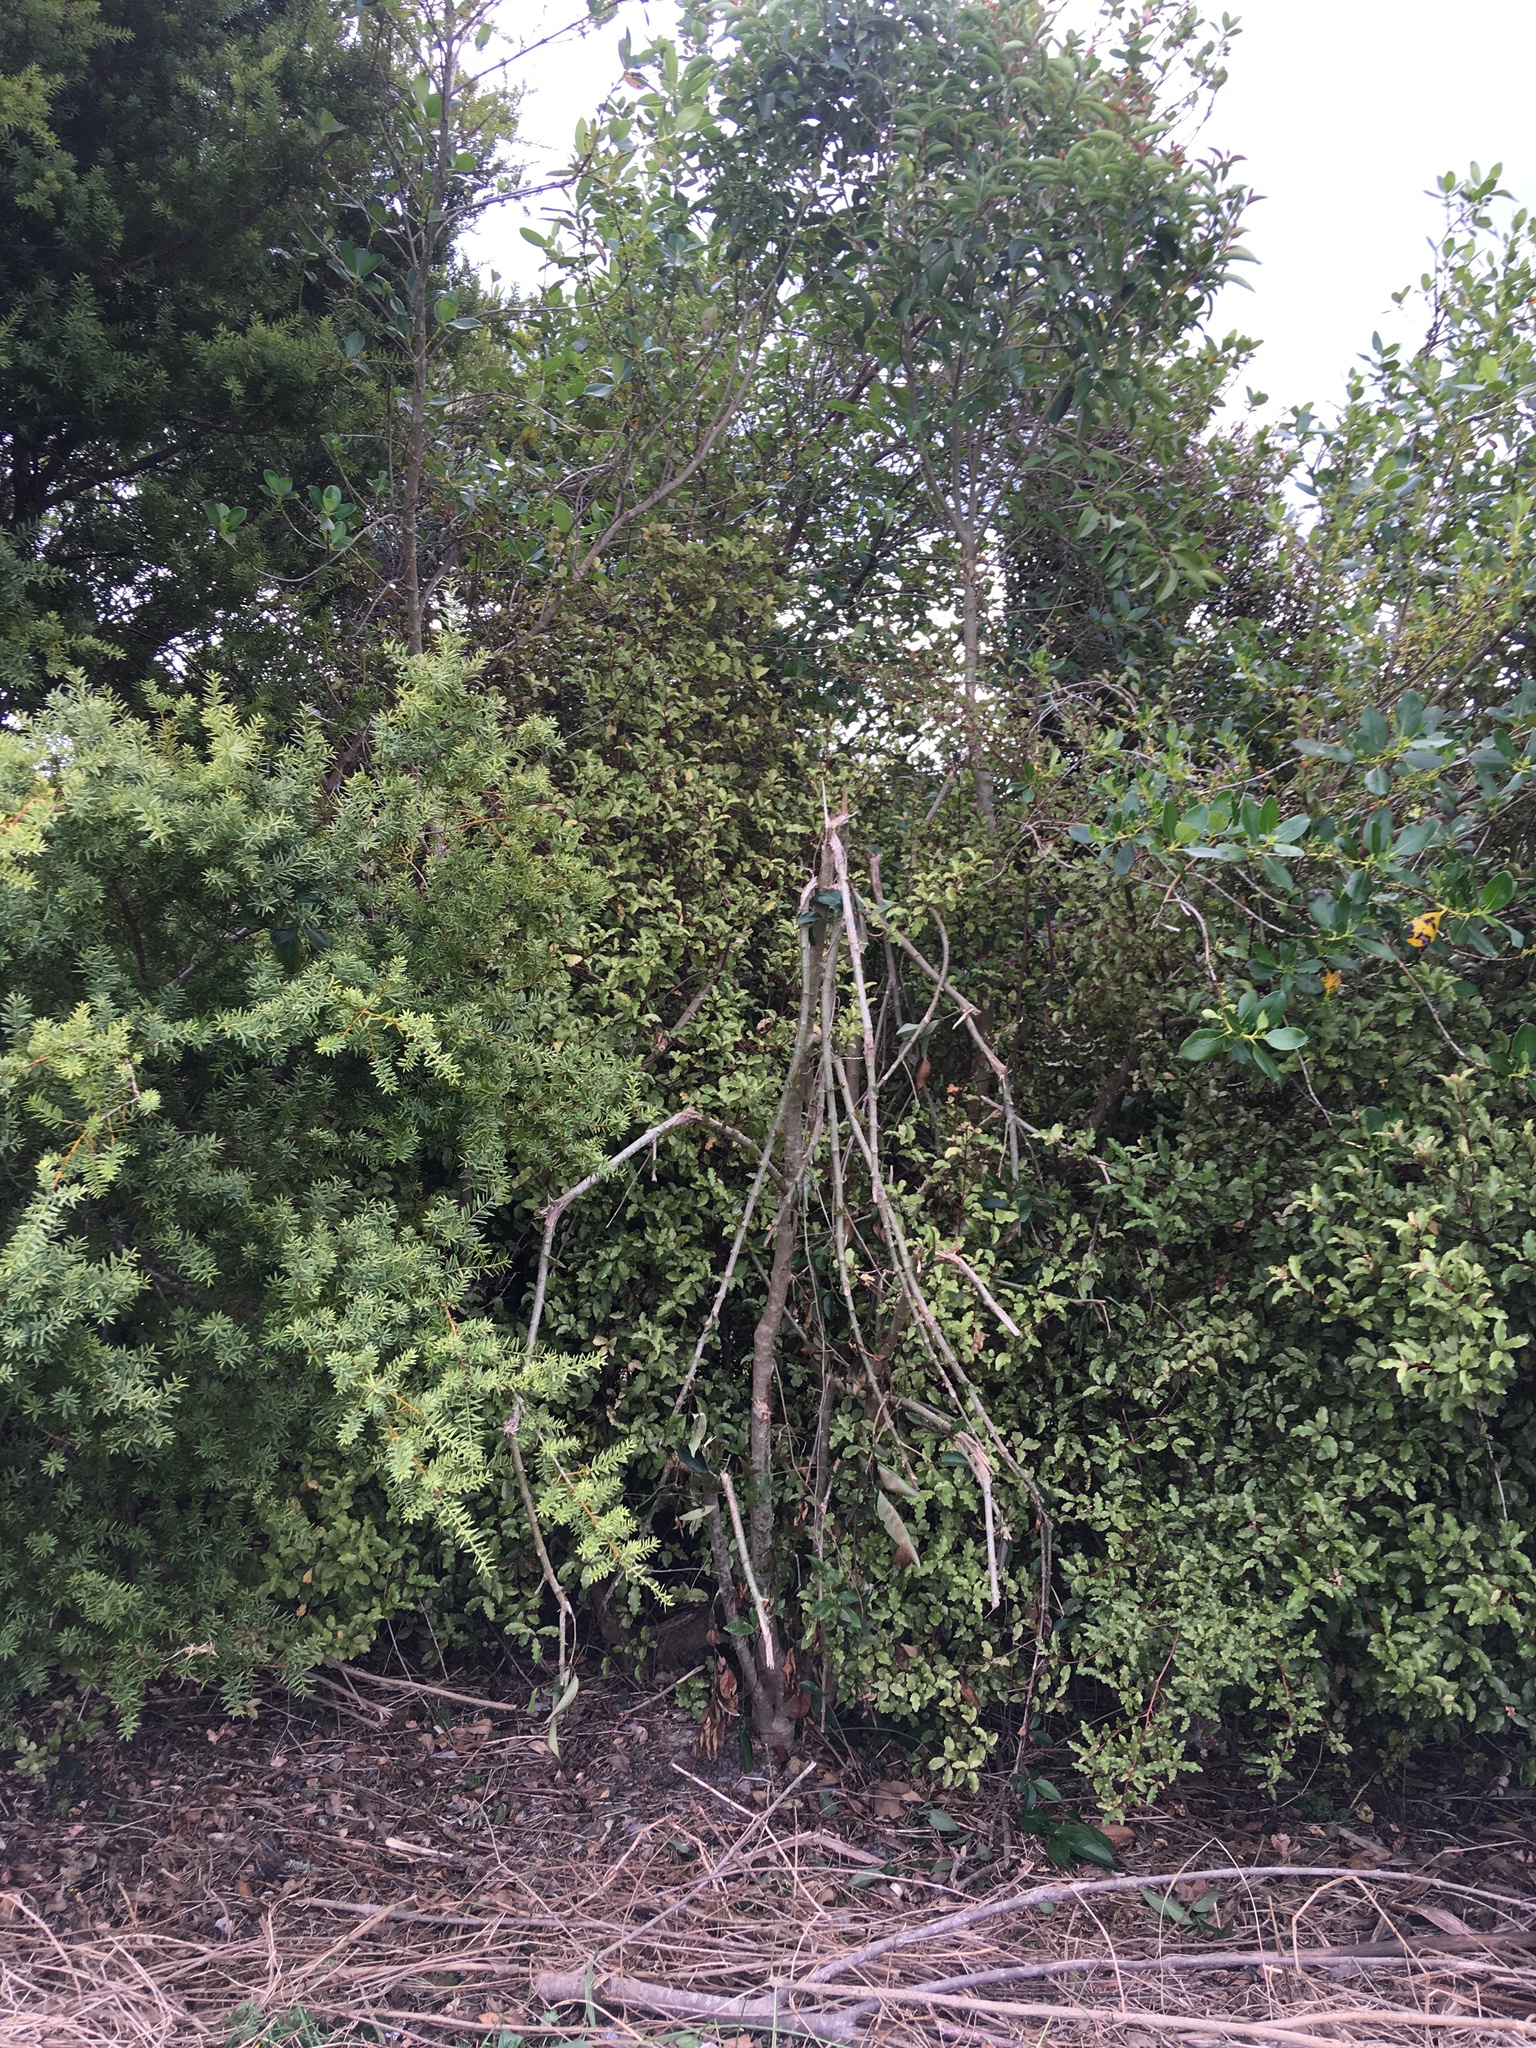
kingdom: Plantae
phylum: Tracheophyta
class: Magnoliopsida
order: Ericales
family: Primulaceae
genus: Myrsine
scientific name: Myrsine australis
